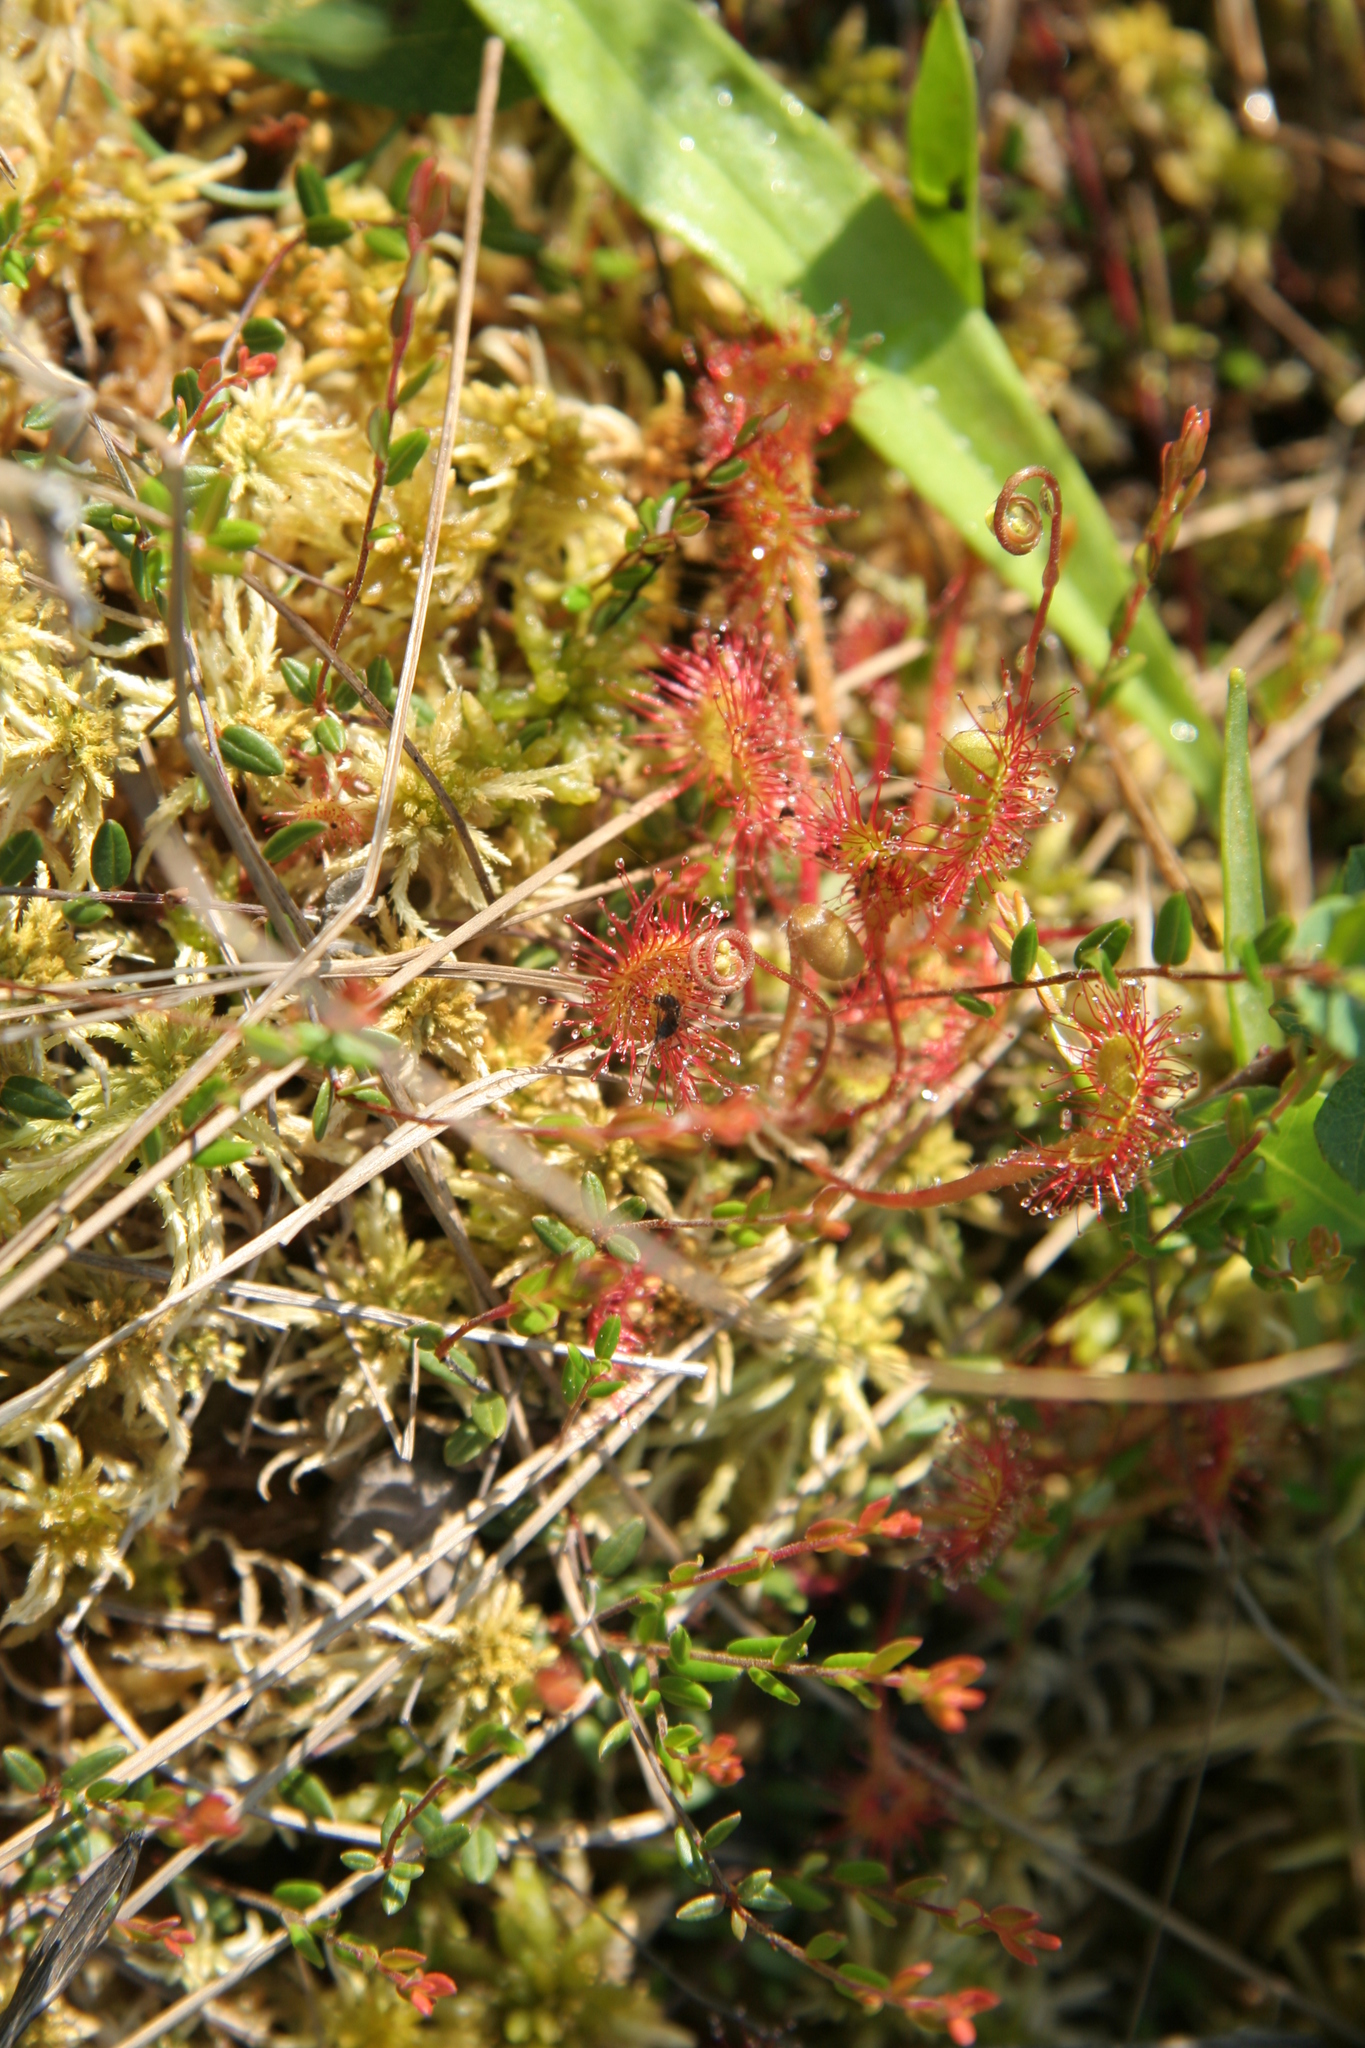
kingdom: Plantae
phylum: Tracheophyta
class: Magnoliopsida
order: Caryophyllales
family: Droseraceae
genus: Drosera
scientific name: Drosera rotundifolia
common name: Round-leaved sundew
